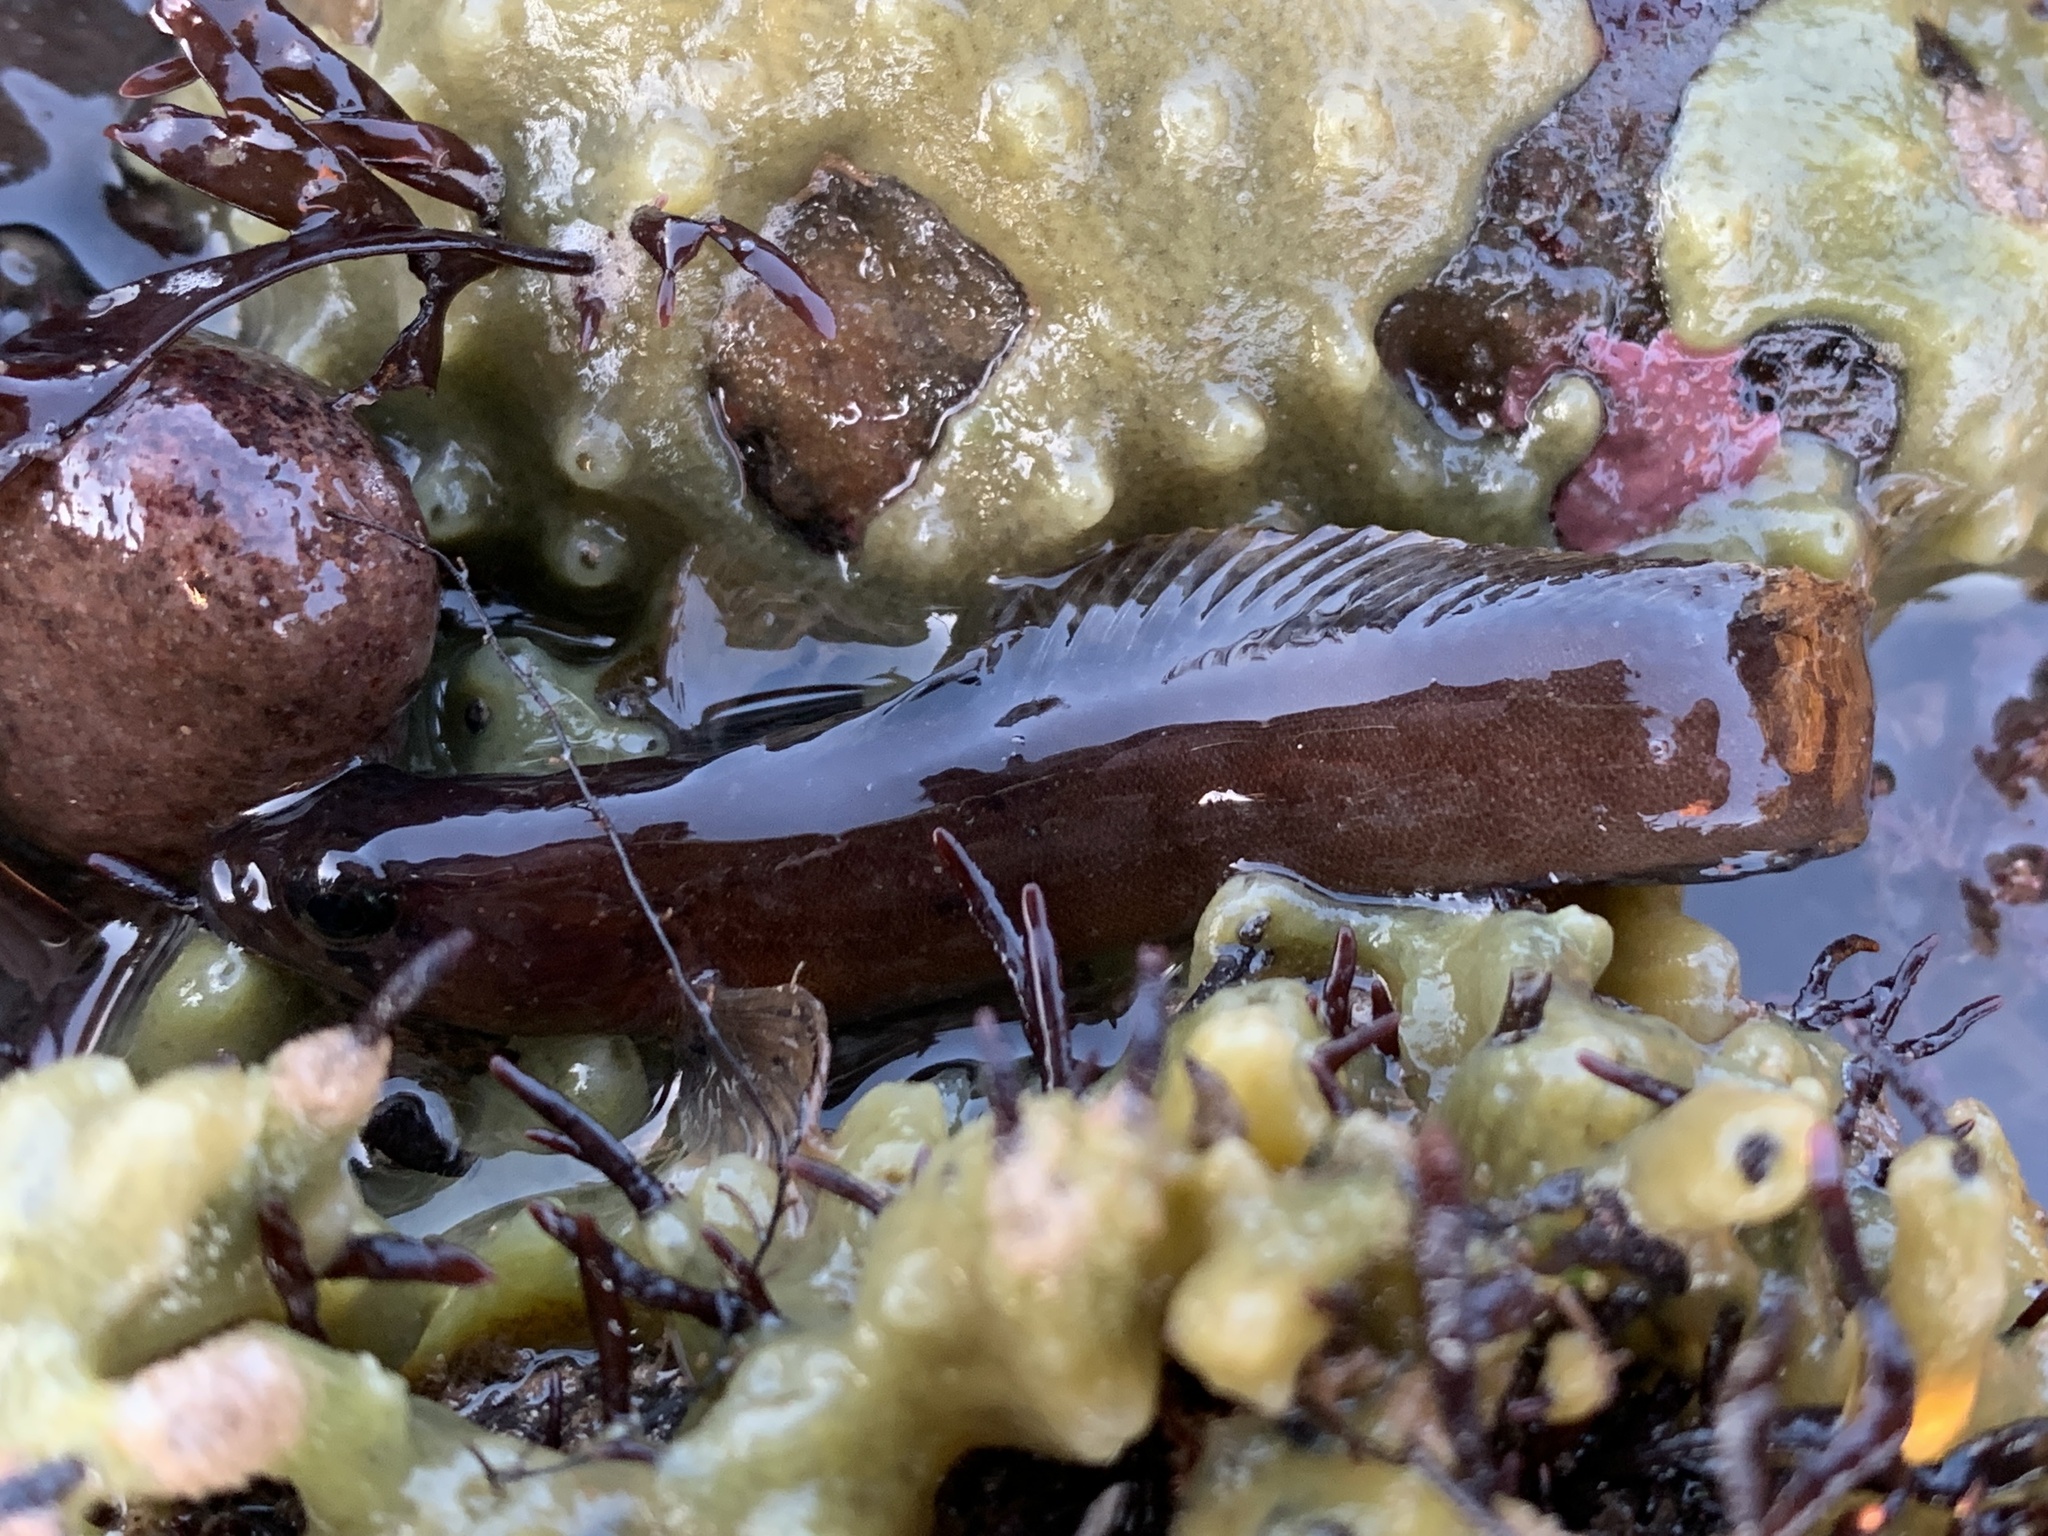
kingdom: Animalia
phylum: Chordata
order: Perciformes
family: Stichaeidae
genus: Ulvaria
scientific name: Ulvaria subbifurcata
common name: Radiated shanny
